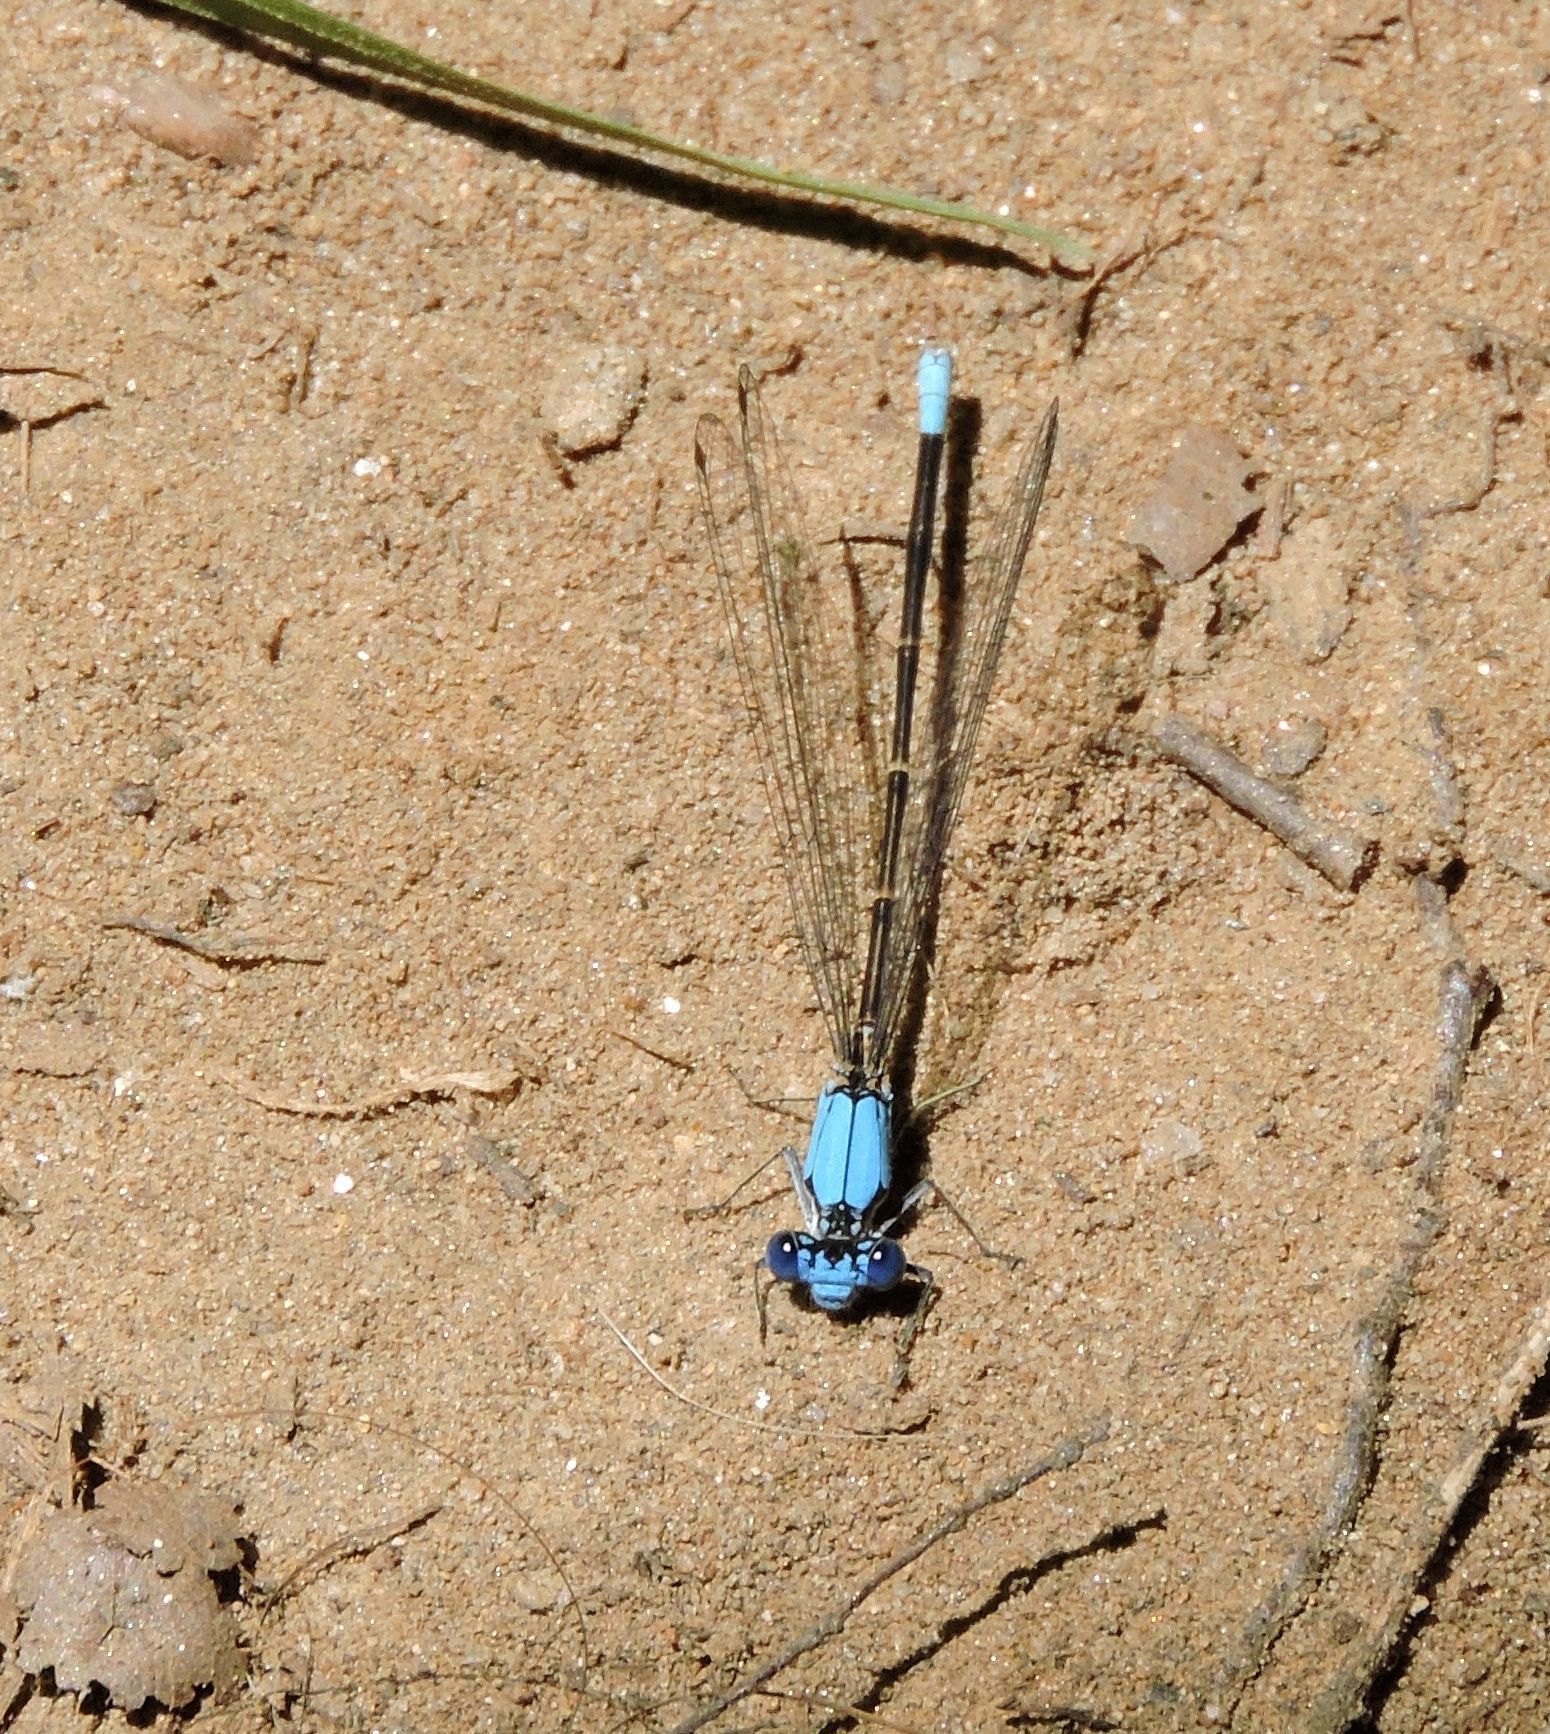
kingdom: Animalia
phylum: Arthropoda
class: Insecta
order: Odonata
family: Coenagrionidae
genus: Argia
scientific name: Argia apicalis
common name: Blue-fronted dancer
